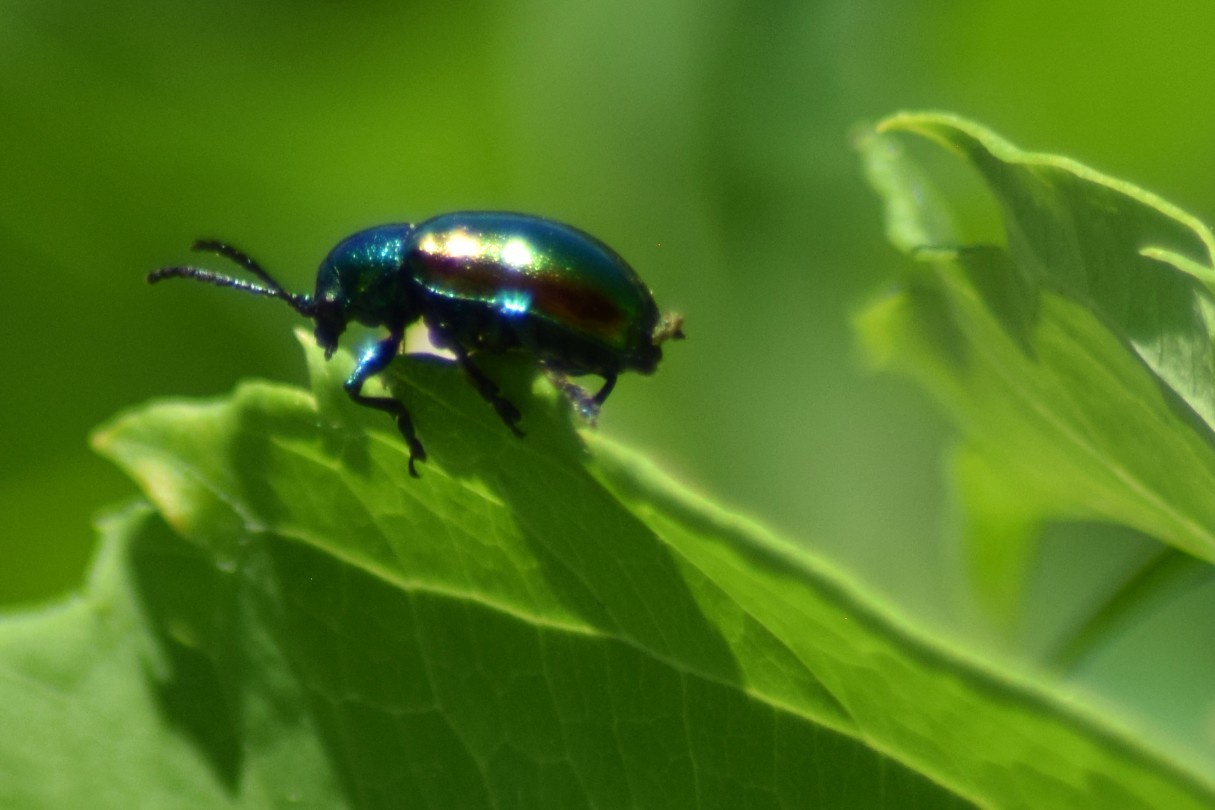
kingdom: Animalia
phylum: Arthropoda
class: Insecta
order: Coleoptera
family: Chrysomelidae
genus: Chrysochus
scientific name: Chrysochus auratus
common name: Dogbane leaf beetle
